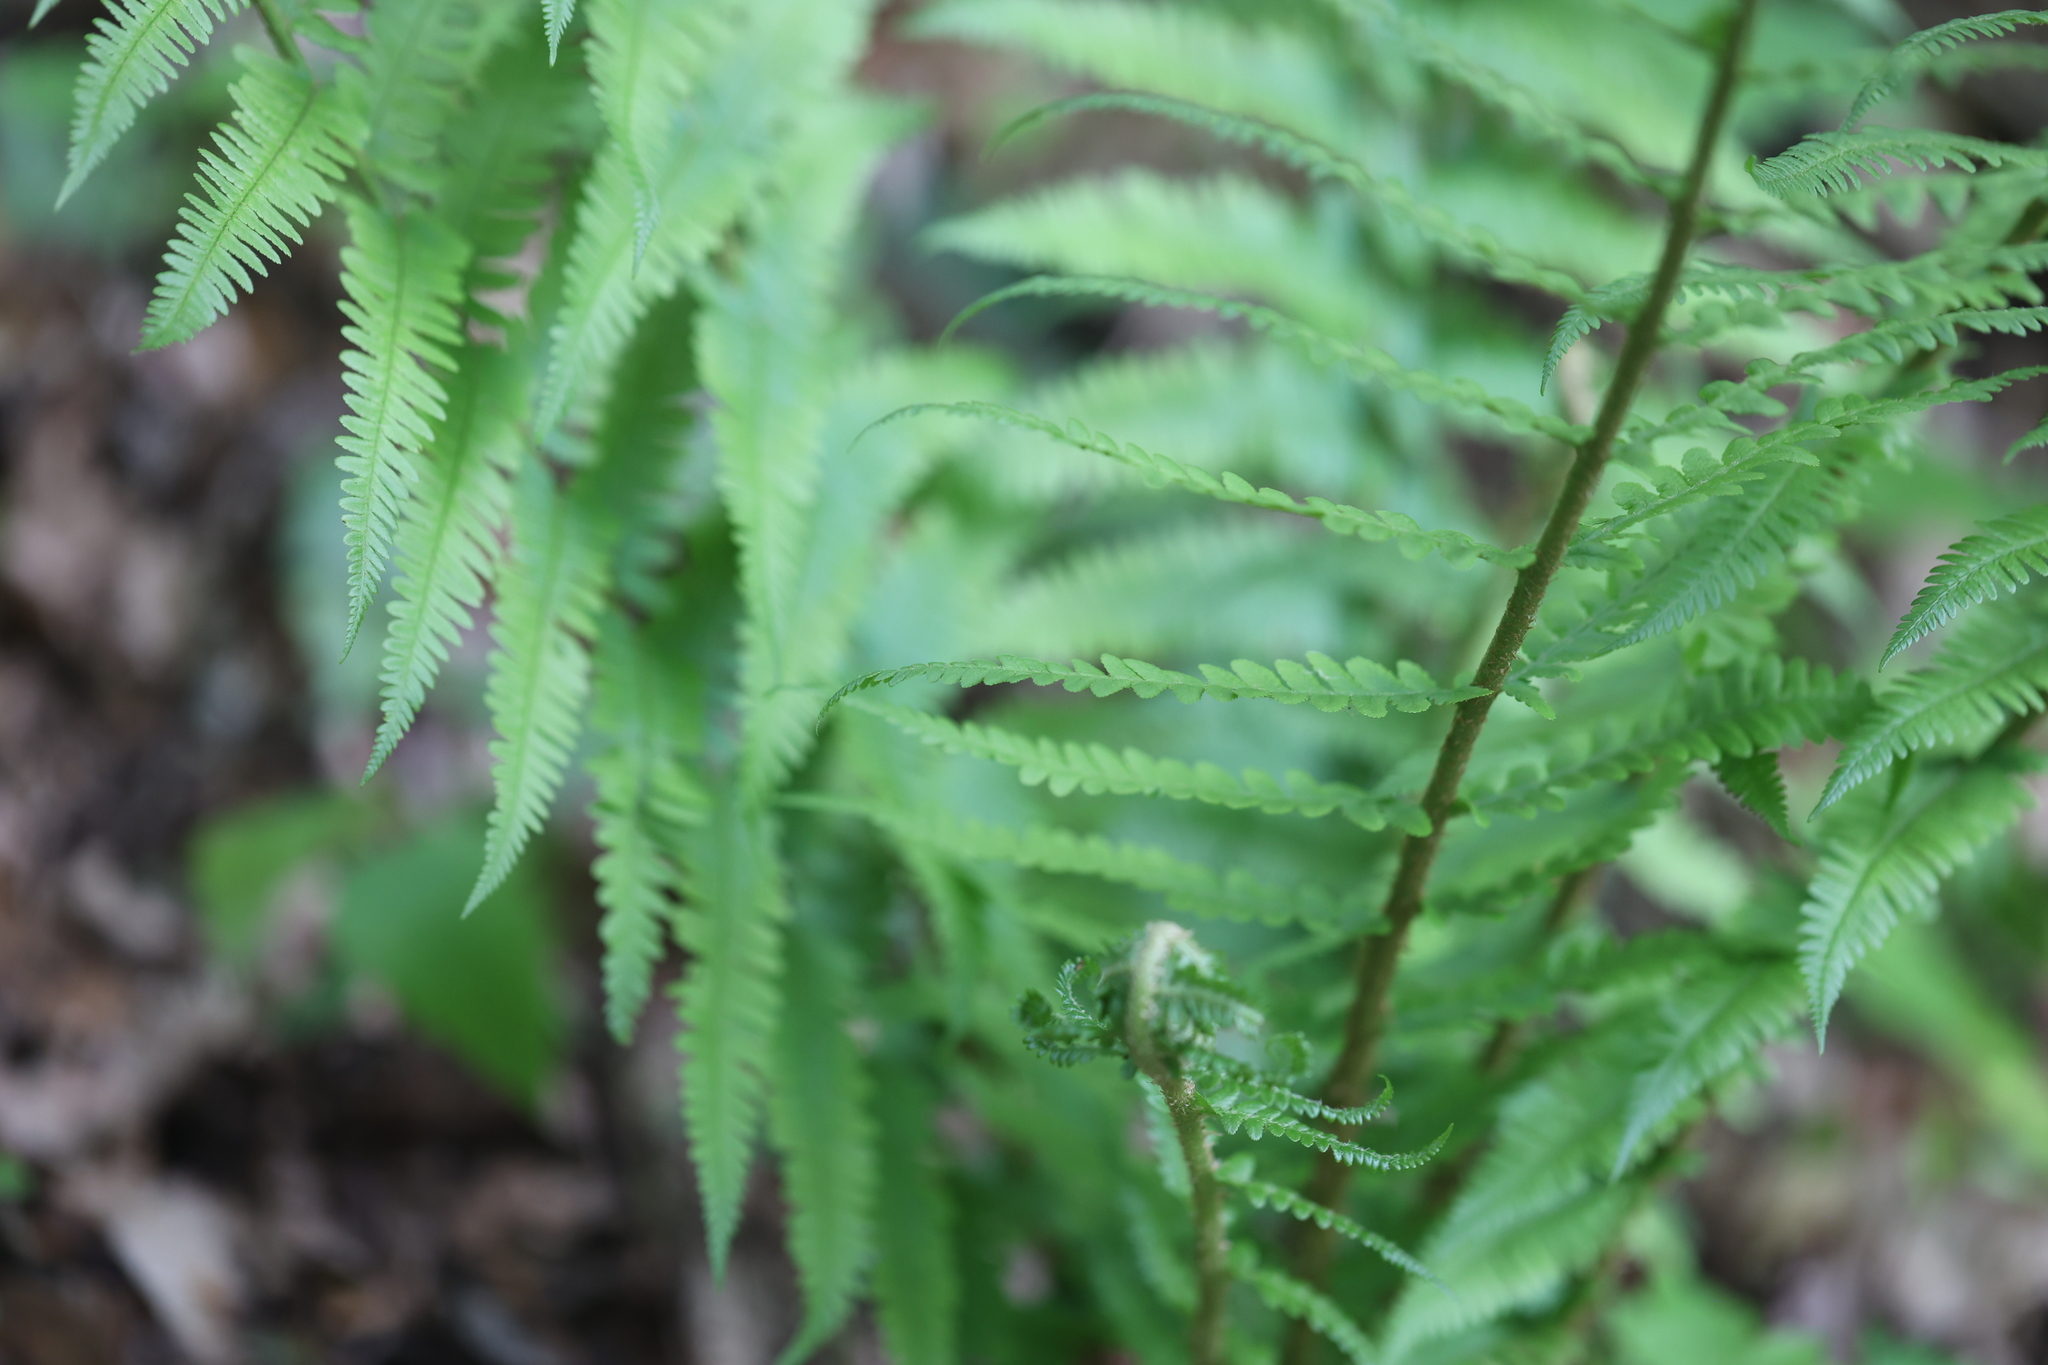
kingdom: Plantae
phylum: Tracheophyta
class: Polypodiopsida
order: Polypodiales
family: Dryopteridaceae
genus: Dryopteris
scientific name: Dryopteris filix-mas
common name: Male fern
